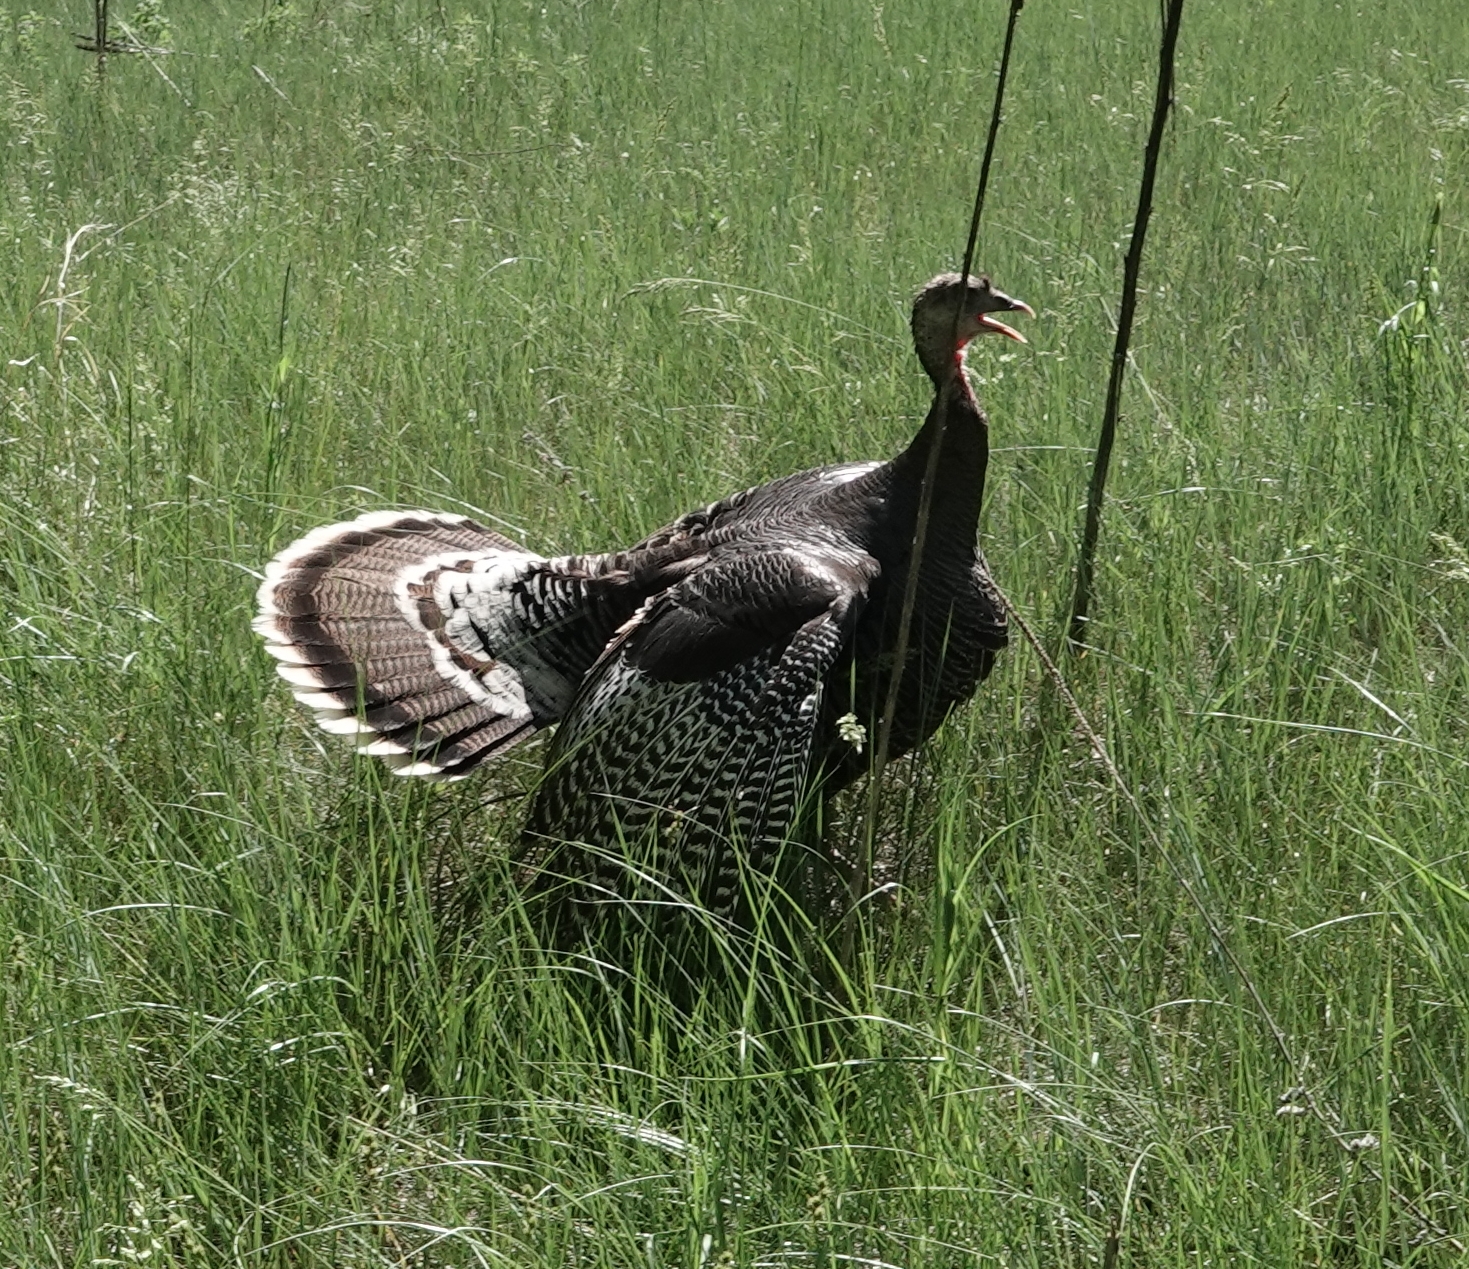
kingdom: Animalia
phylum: Chordata
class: Aves
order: Galliformes
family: Phasianidae
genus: Meleagris
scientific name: Meleagris gallopavo
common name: Wild turkey
